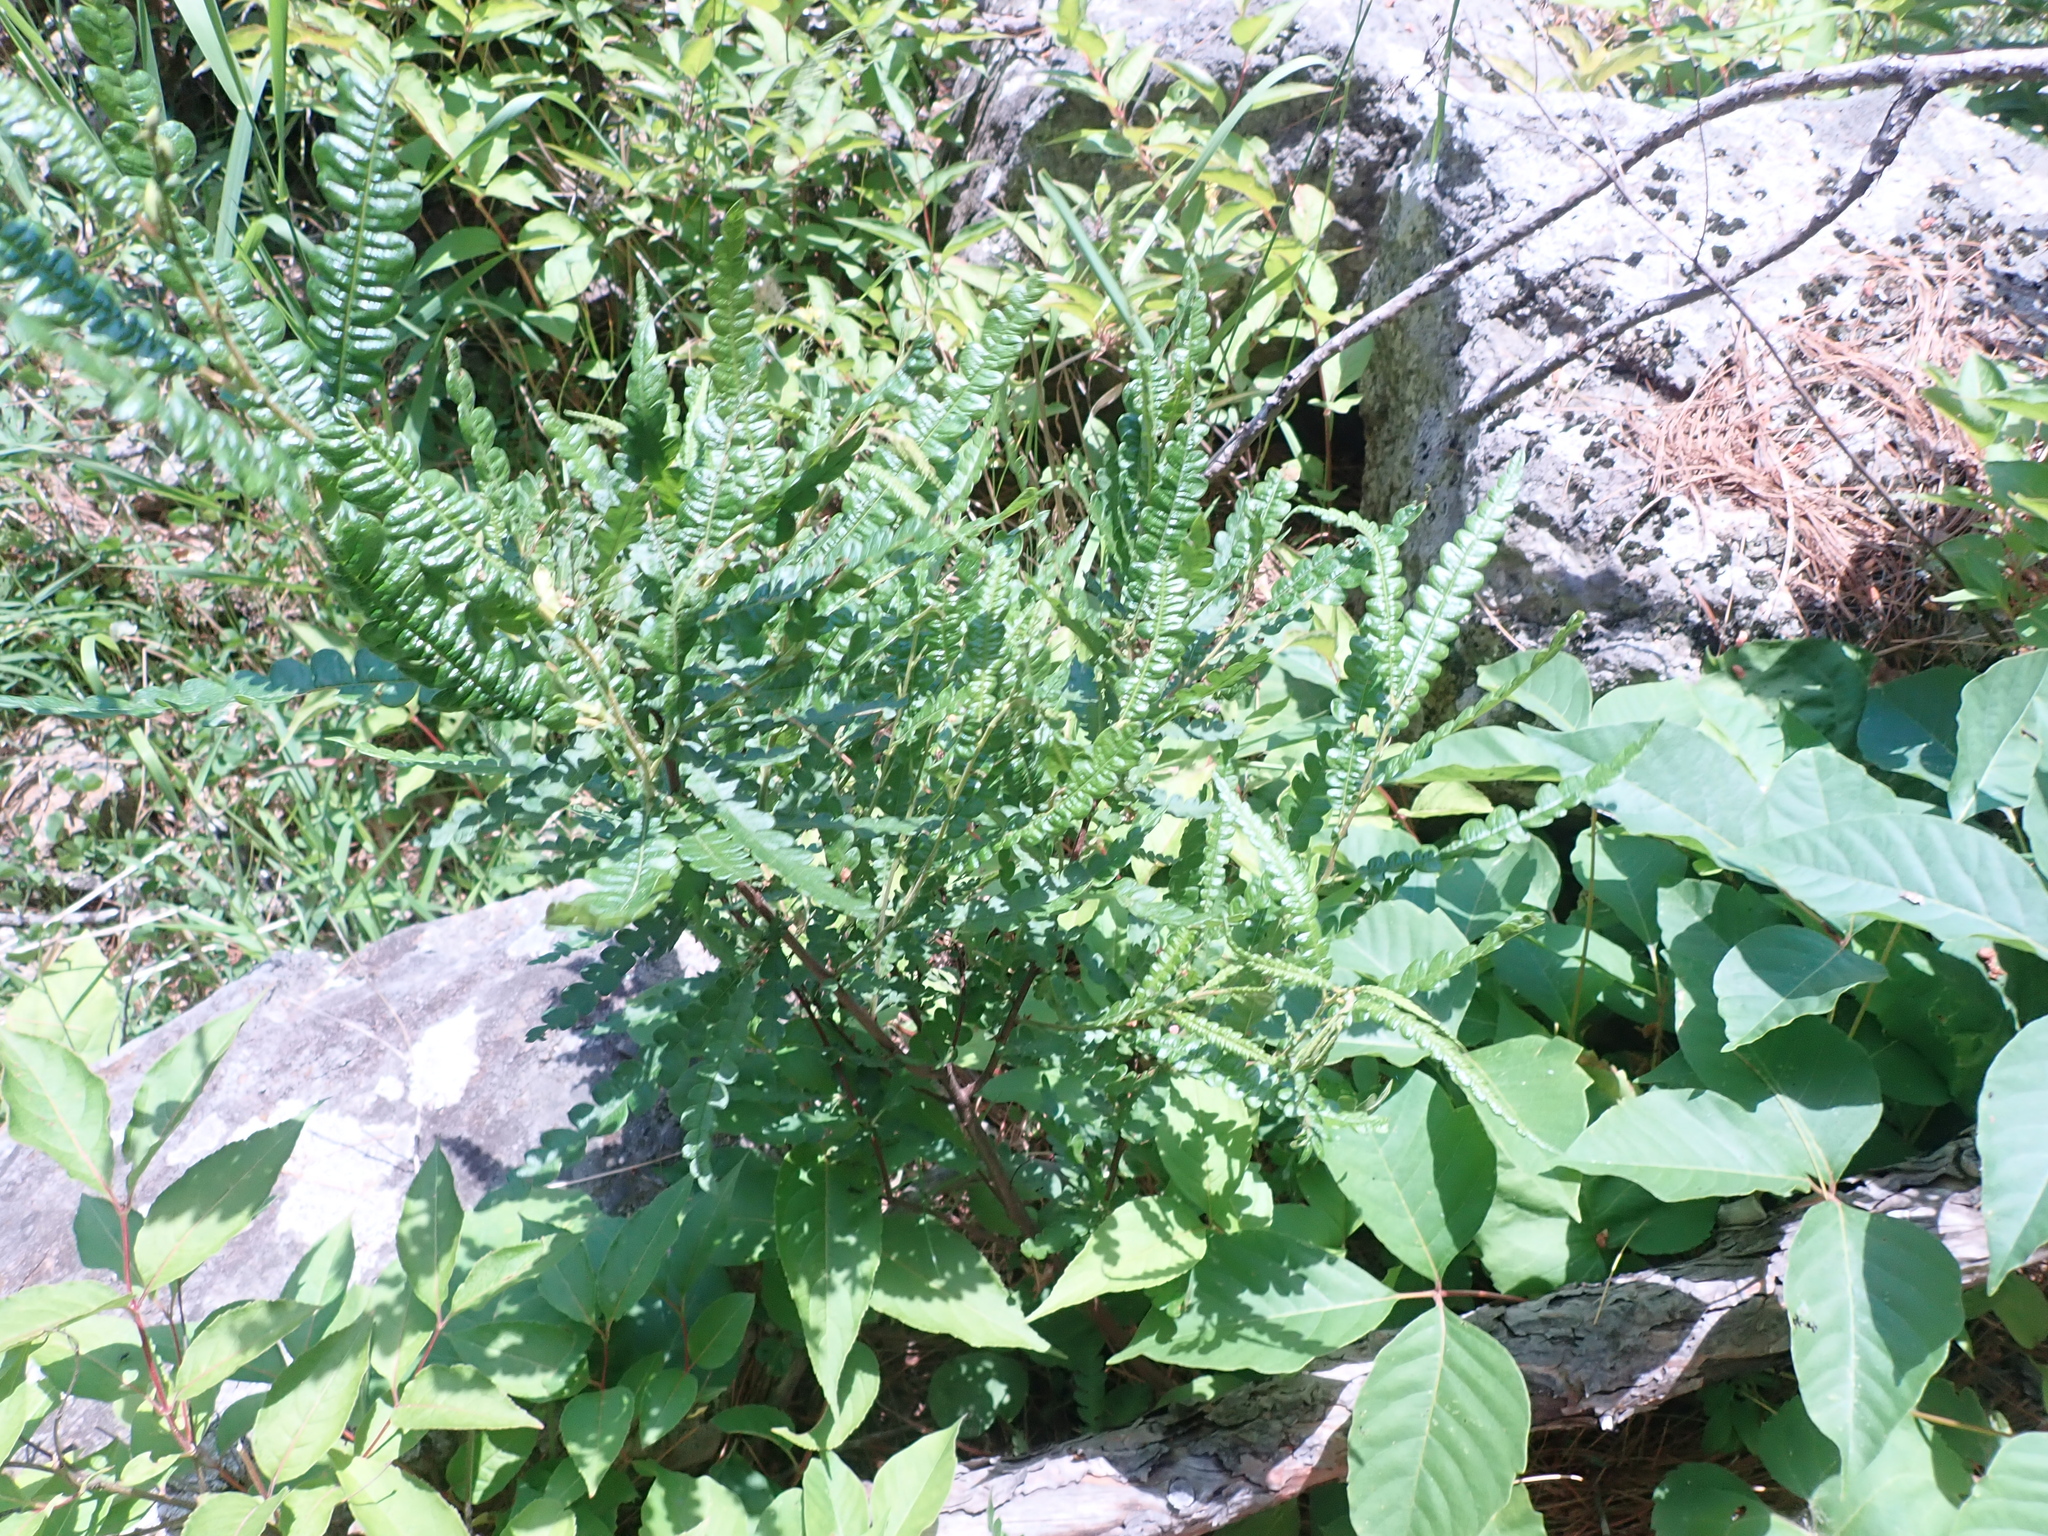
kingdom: Plantae
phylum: Tracheophyta
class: Magnoliopsida
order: Fagales
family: Myricaceae
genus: Comptonia
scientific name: Comptonia peregrina
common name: Sweet-fern
